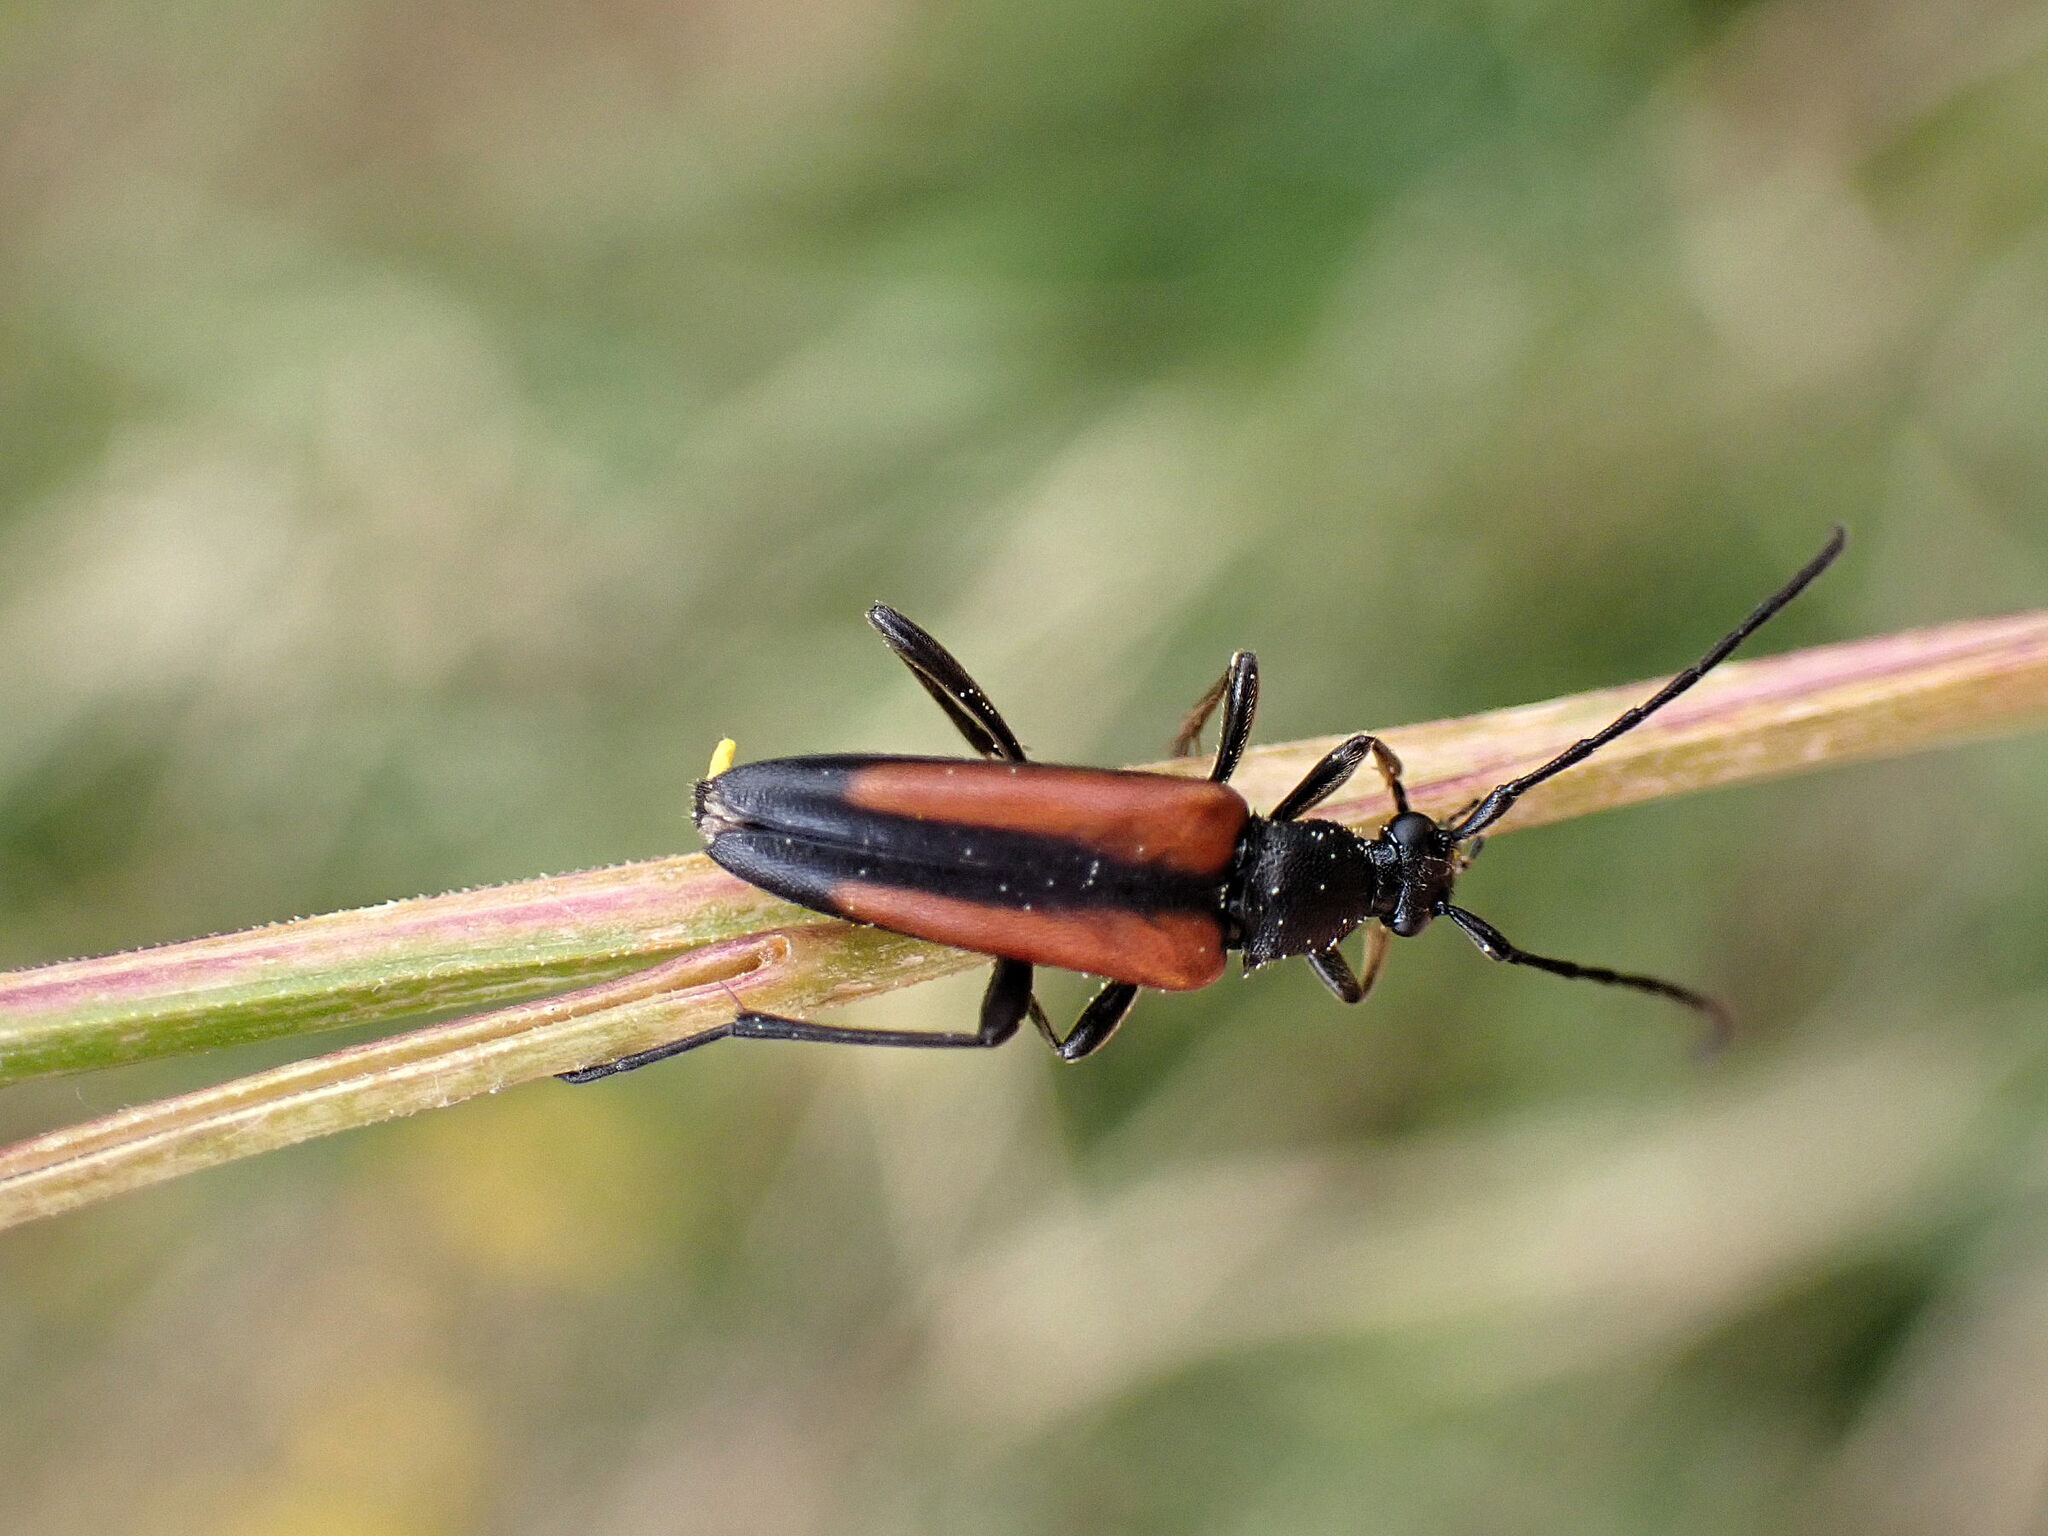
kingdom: Animalia
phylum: Arthropoda
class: Insecta
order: Coleoptera
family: Cerambycidae
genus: Stenurella
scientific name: Stenurella melanura
